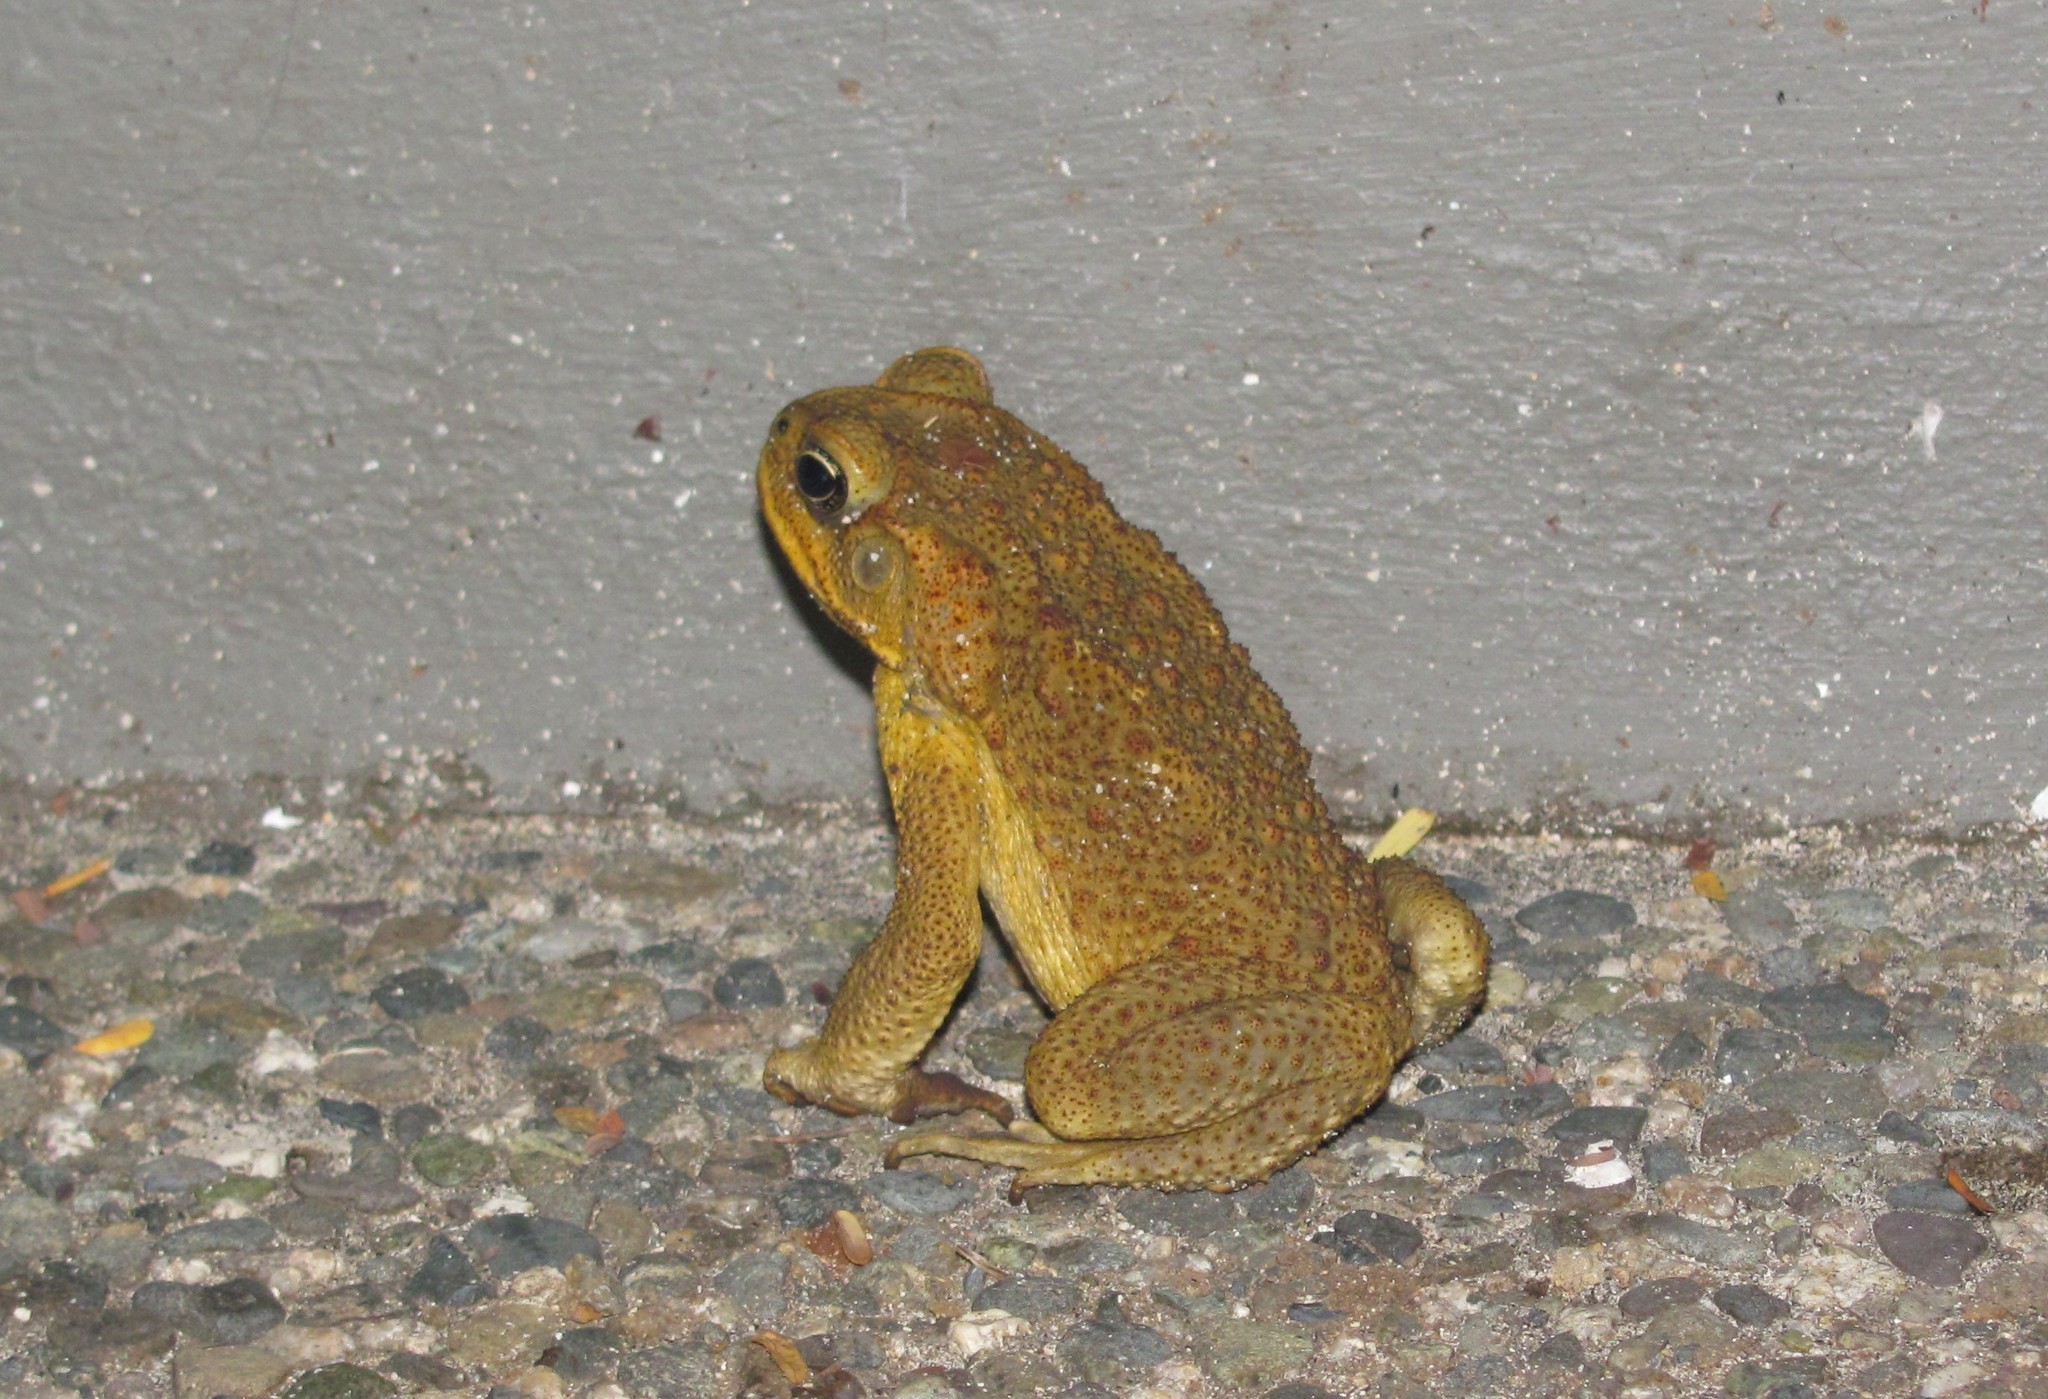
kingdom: Animalia
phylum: Chordata
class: Amphibia
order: Anura
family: Bufonidae
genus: Rhinella
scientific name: Rhinella marina
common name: Cane toad
